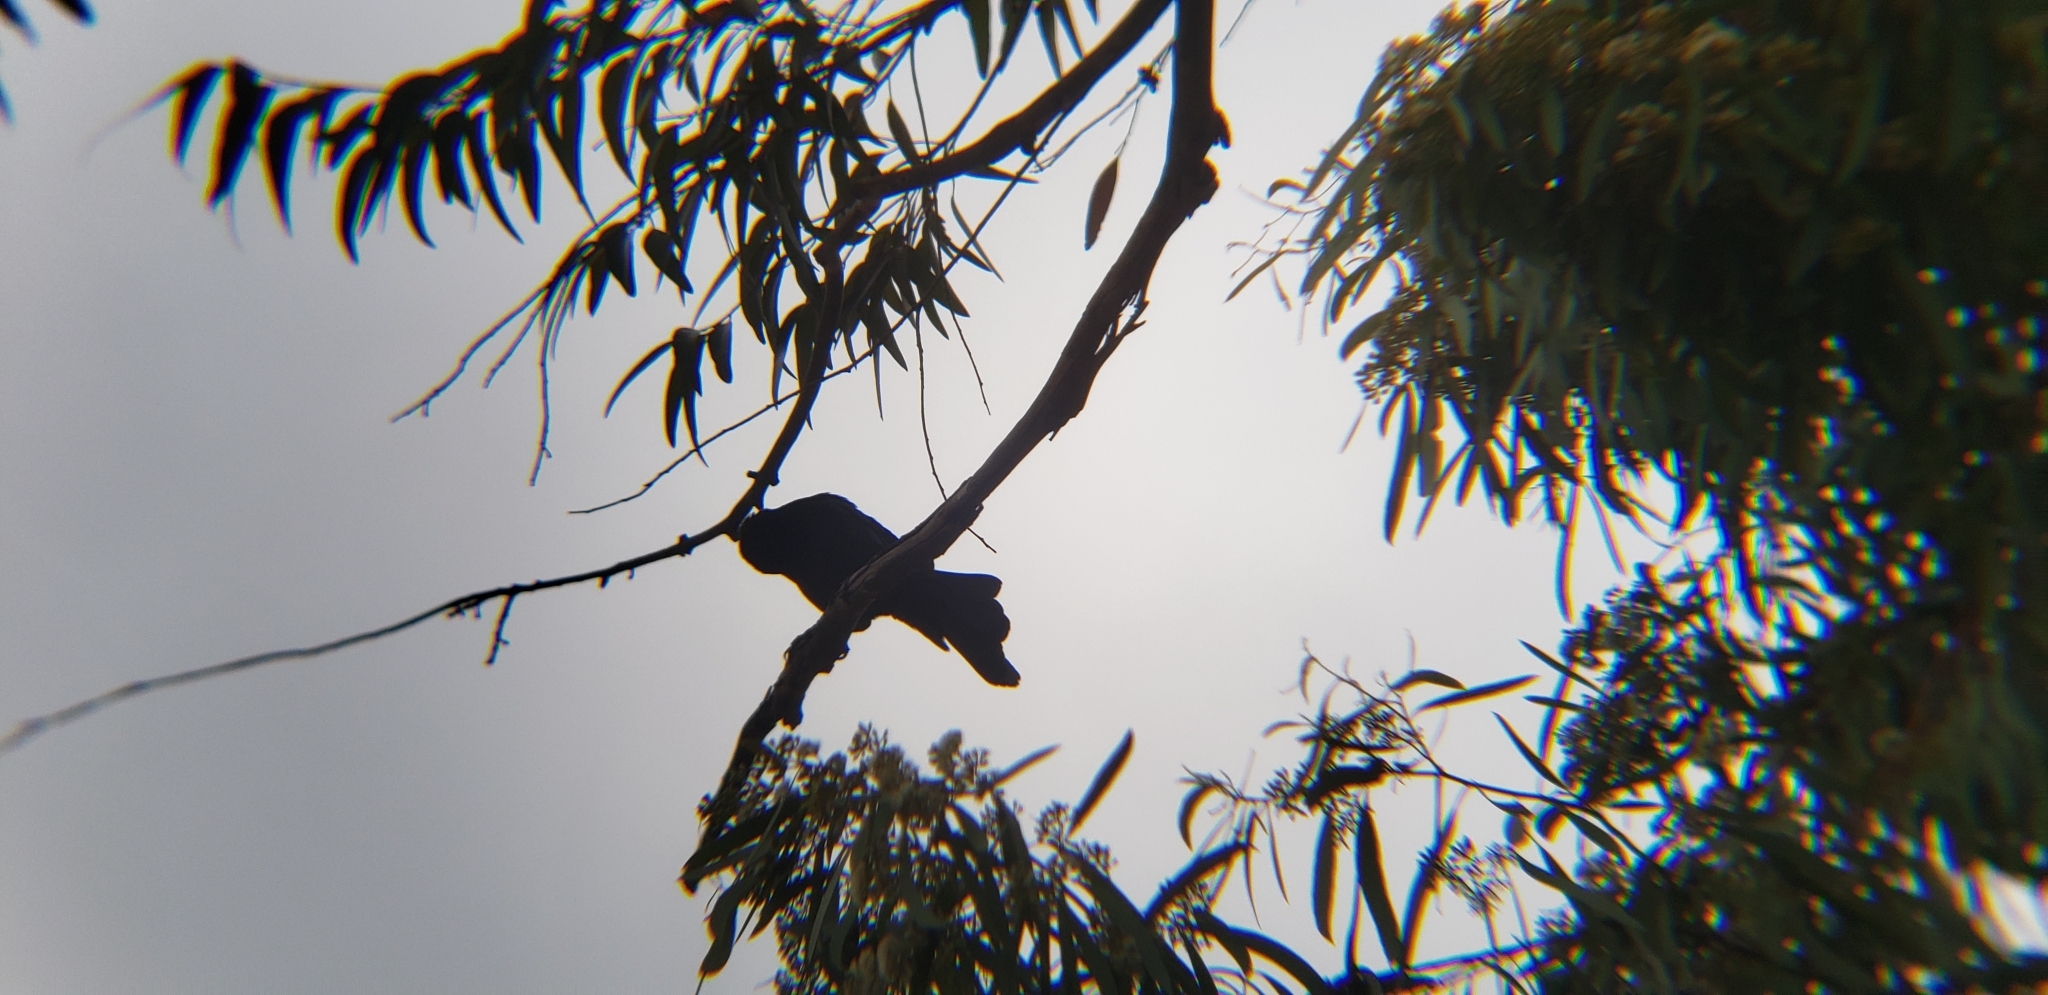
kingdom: Animalia
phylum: Chordata
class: Aves
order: Passeriformes
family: Icteridae
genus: Quiscalus
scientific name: Quiscalus mexicanus
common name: Great-tailed grackle
